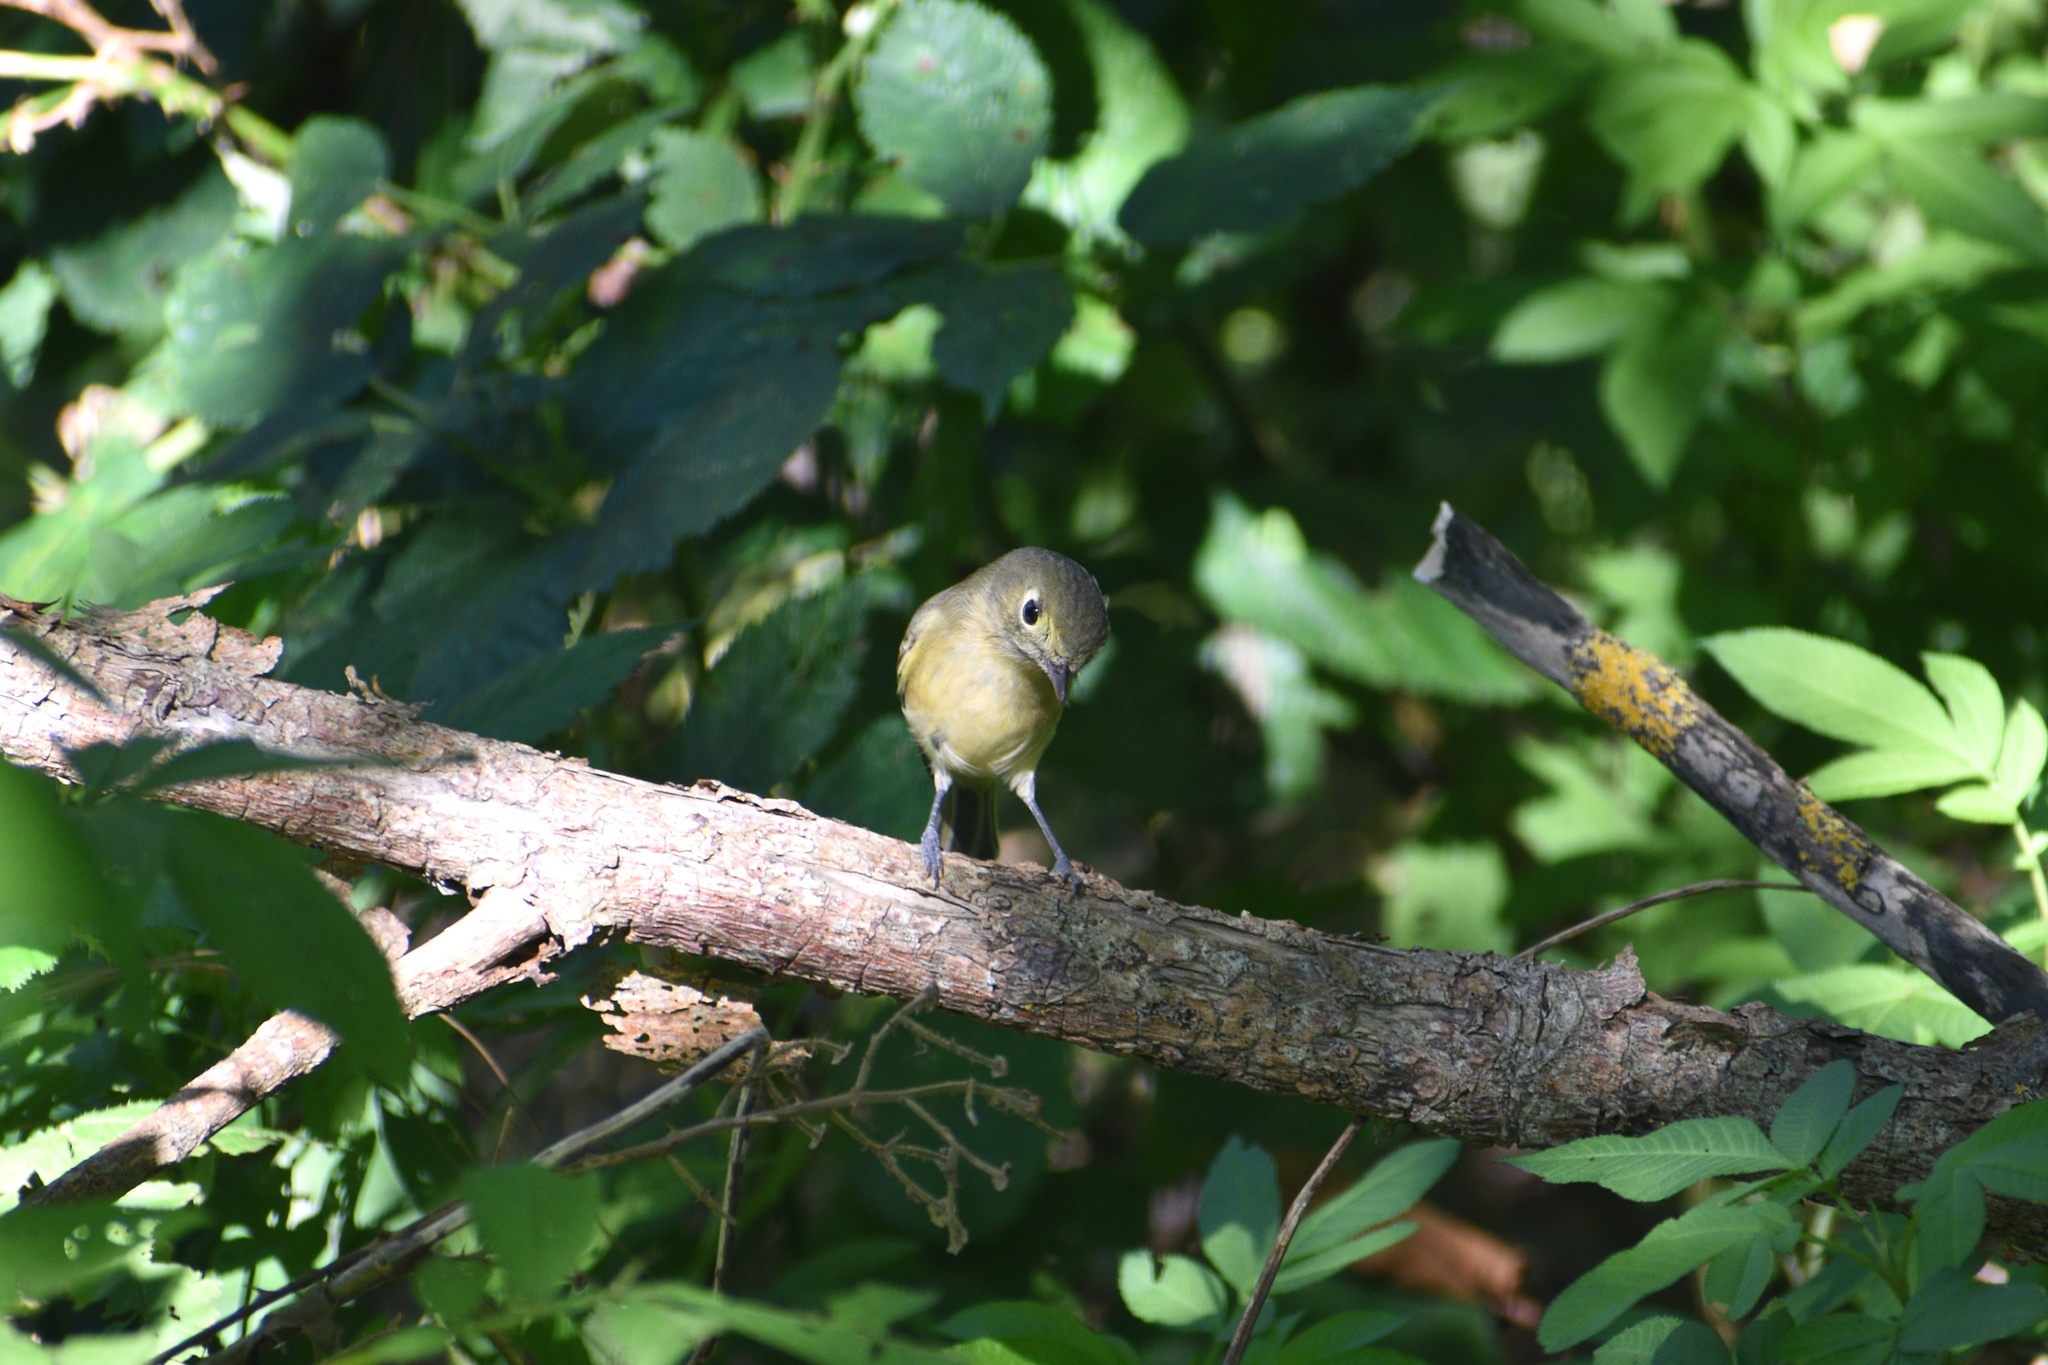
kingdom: Animalia
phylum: Chordata
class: Aves
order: Passeriformes
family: Vireonidae
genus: Vireo
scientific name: Vireo huttoni
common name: Hutton's vireo
